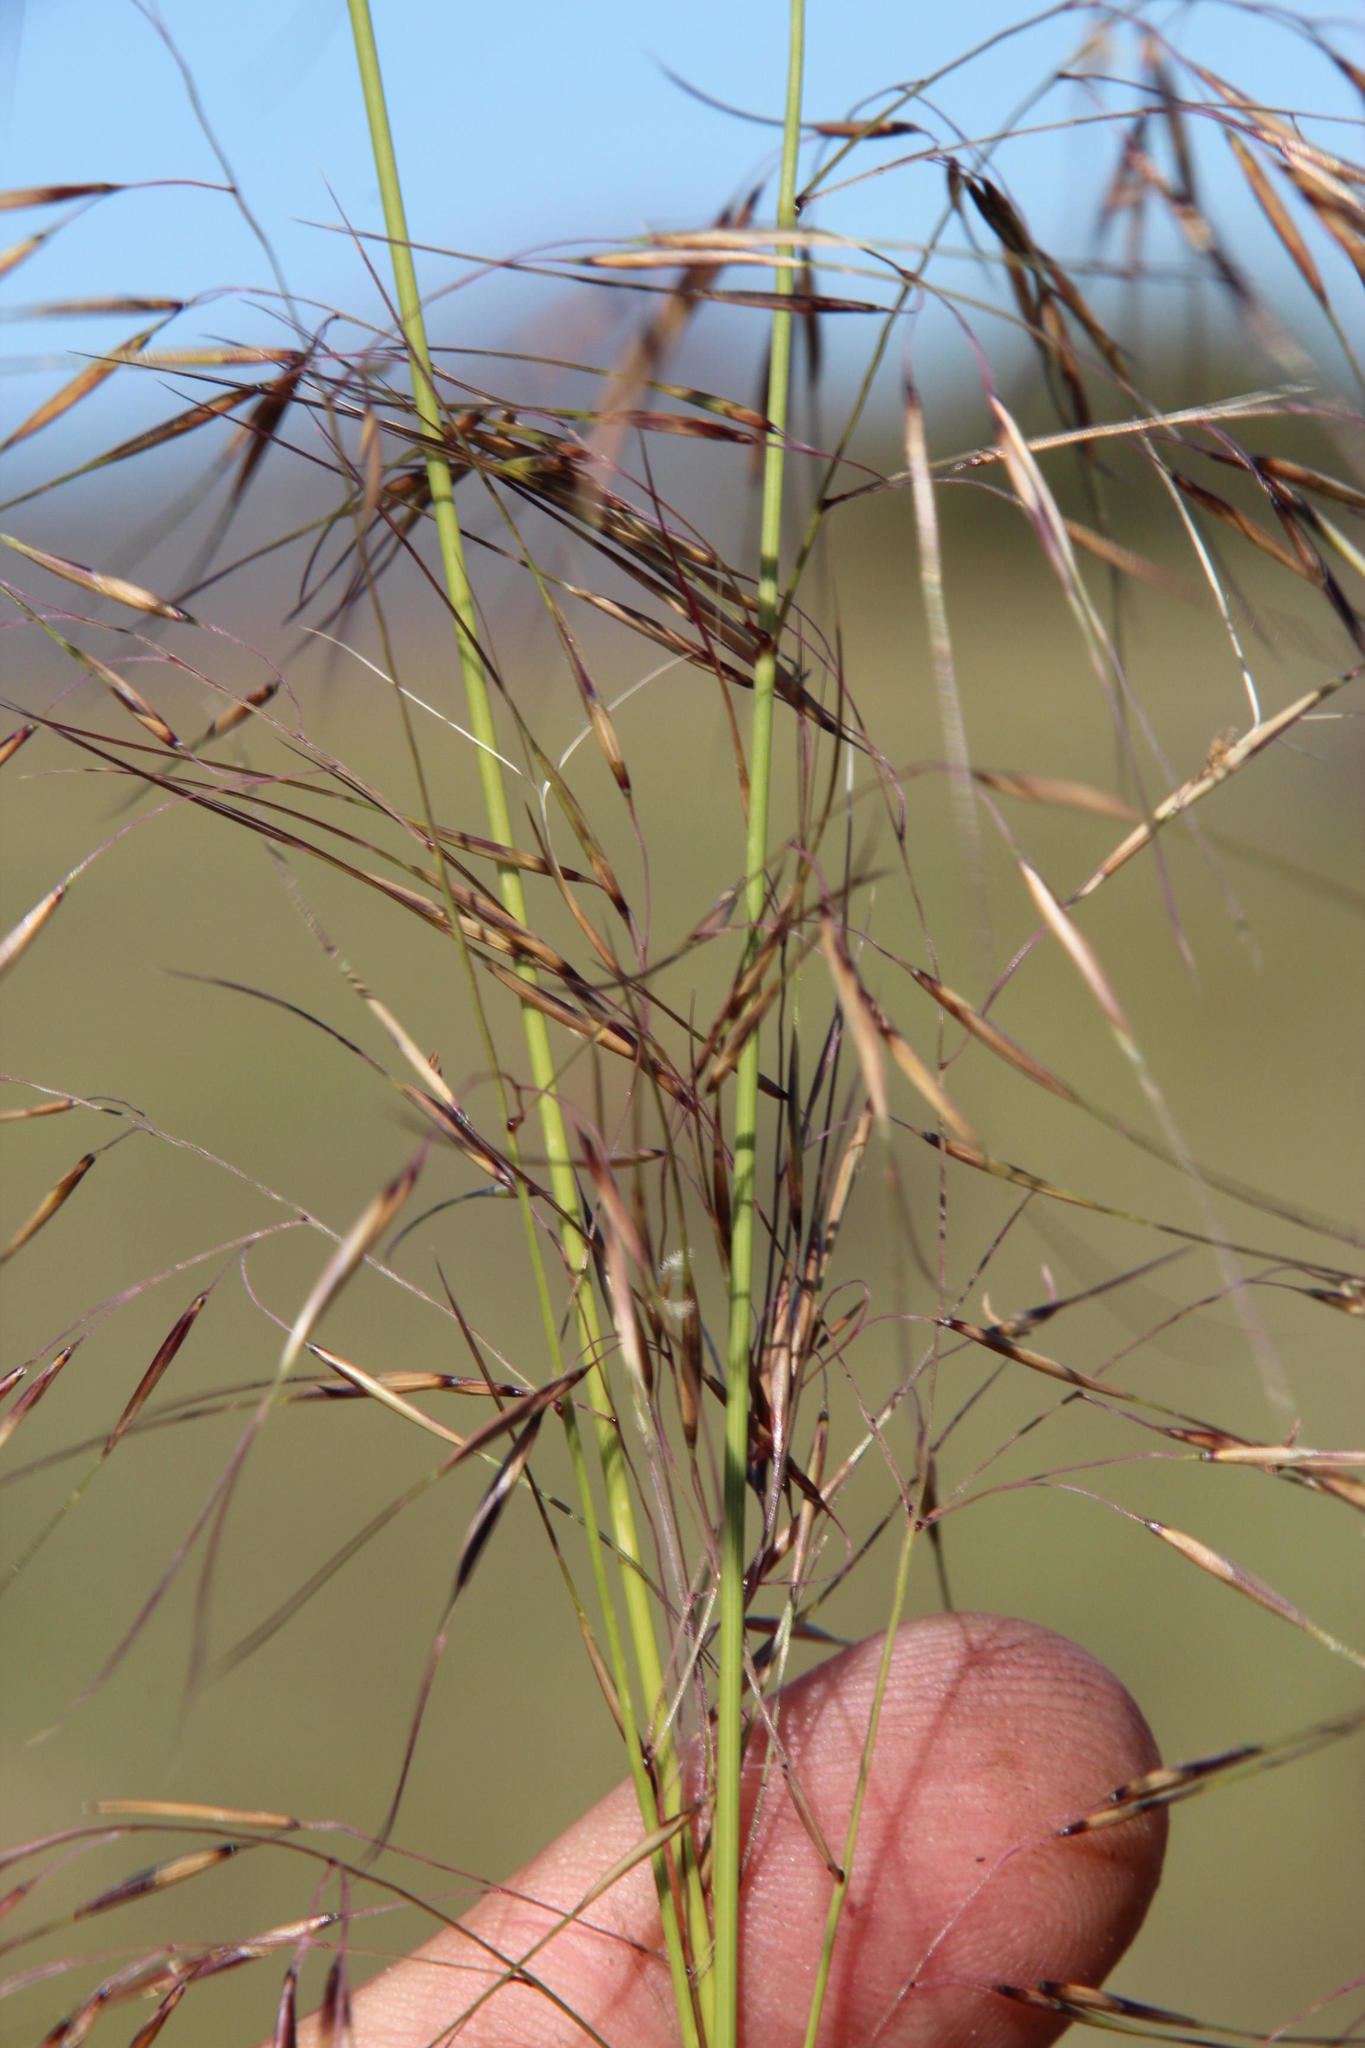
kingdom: Plantae
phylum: Tracheophyta
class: Liliopsida
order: Poales
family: Poaceae
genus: Aristida
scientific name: Aristida diffusa
